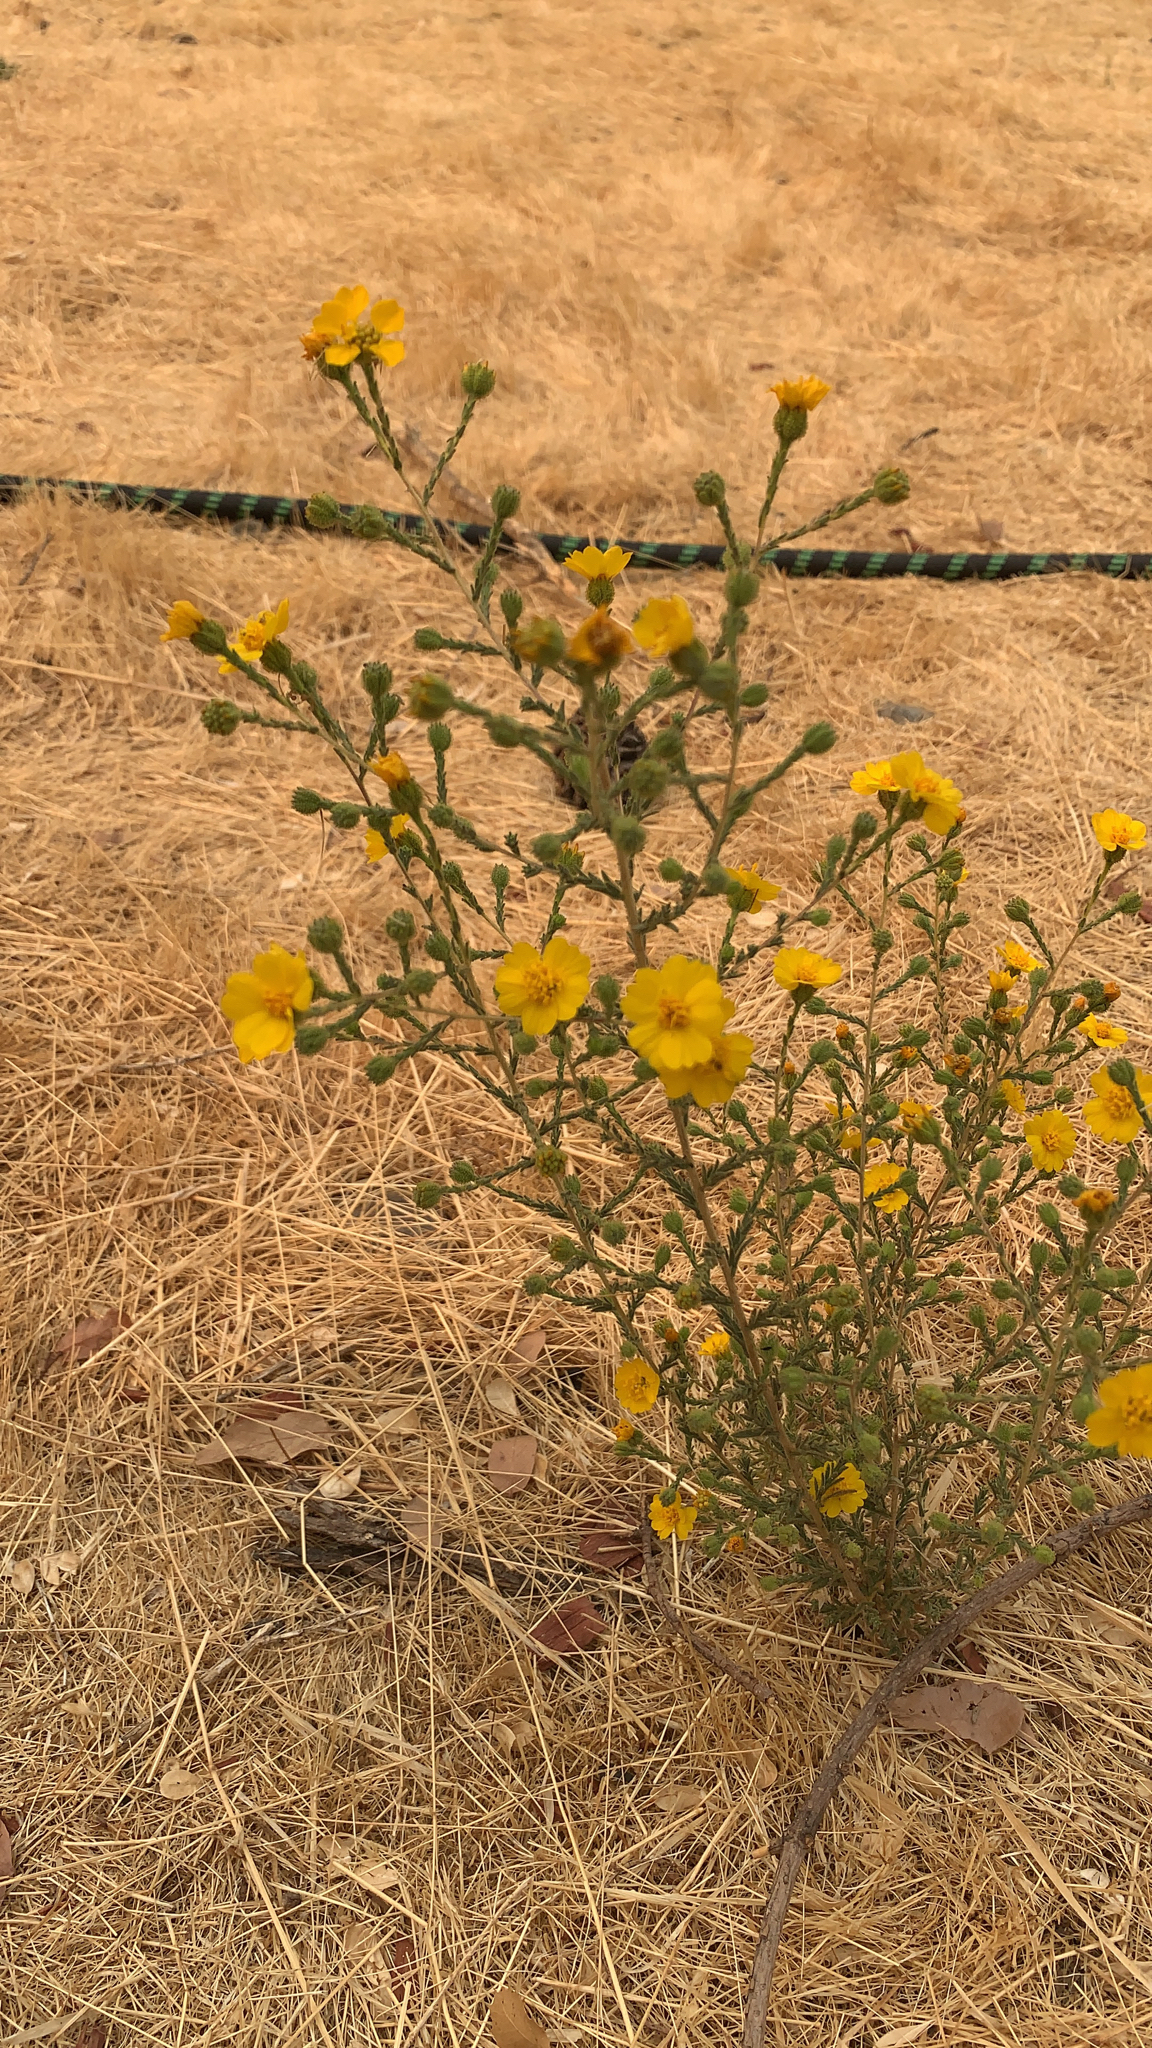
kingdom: Plantae
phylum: Tracheophyta
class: Magnoliopsida
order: Asterales
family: Asteraceae
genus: Holocarpha
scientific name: Holocarpha heermannii
